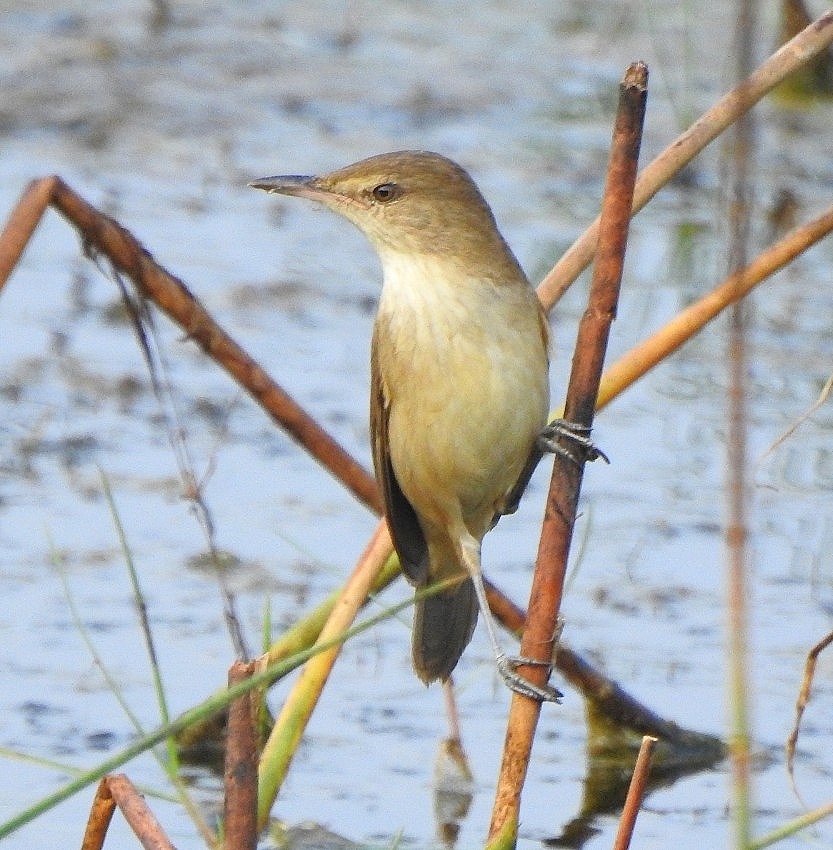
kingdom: Animalia
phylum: Chordata
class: Aves
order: Passeriformes
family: Acrocephalidae
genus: Acrocephalus
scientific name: Acrocephalus stentoreus
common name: Clamorous reed warbler
